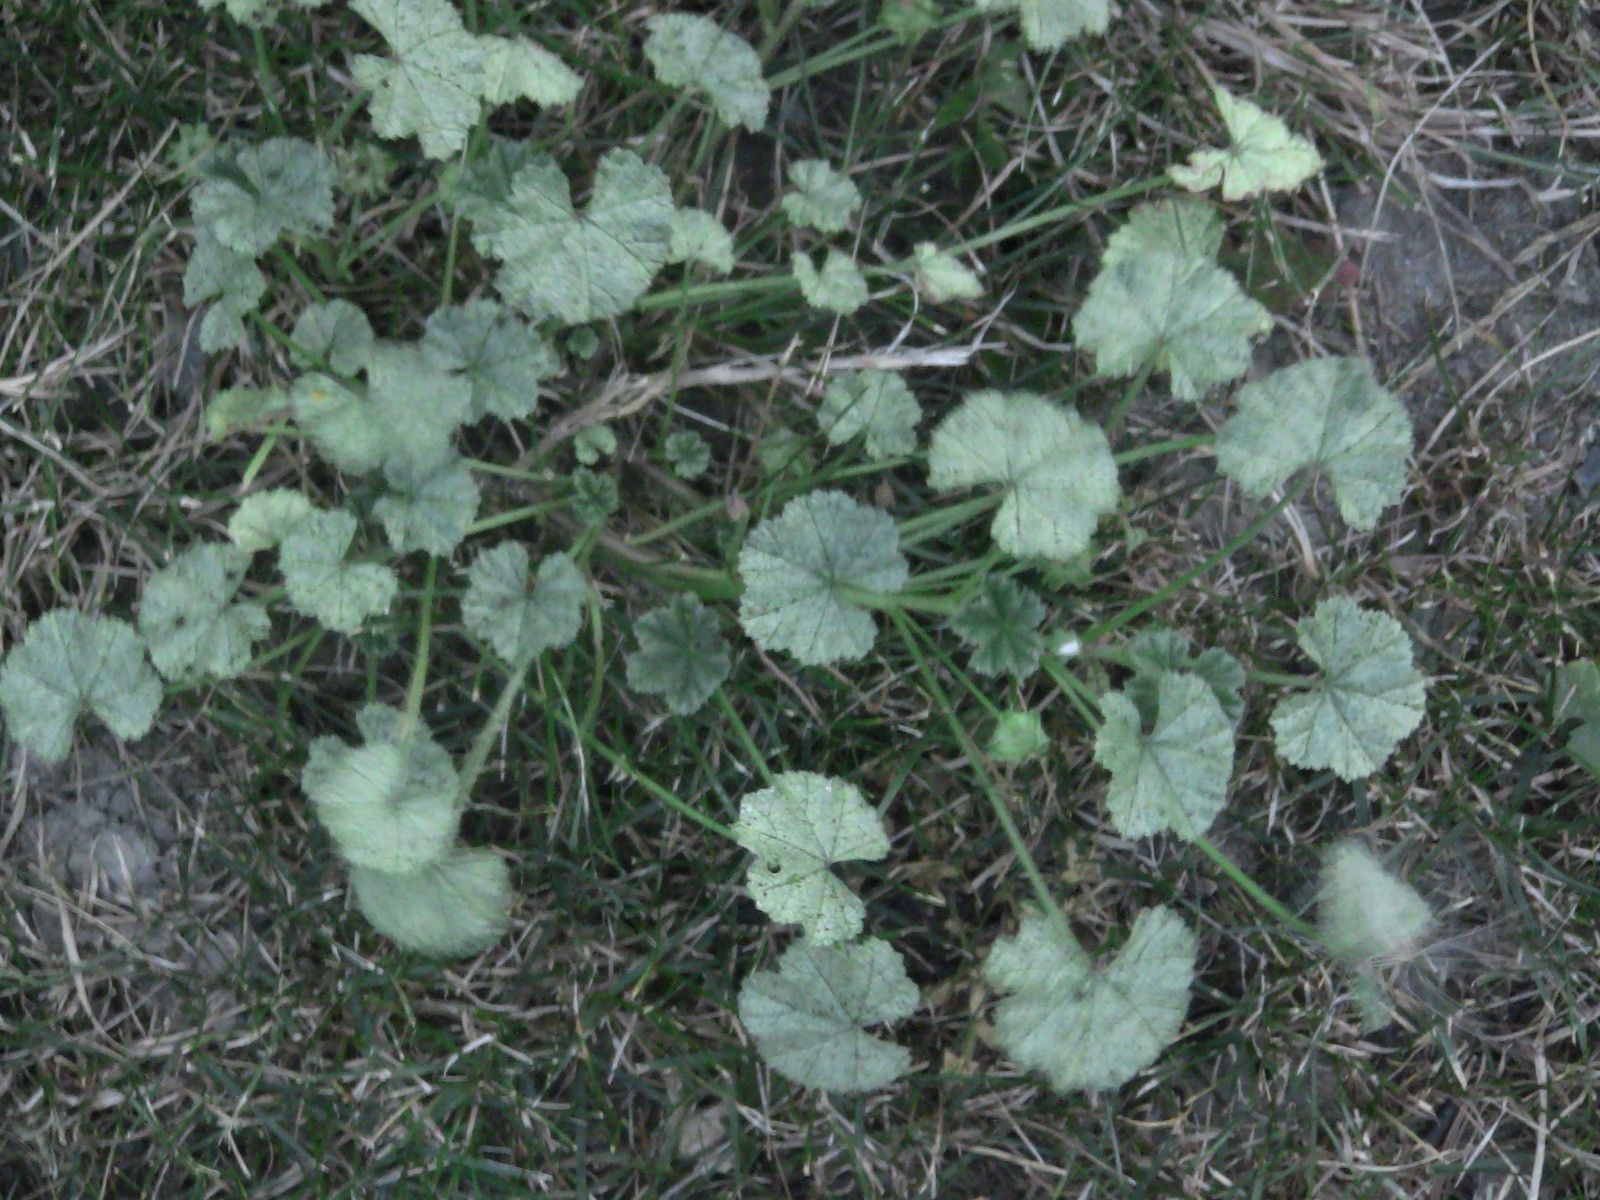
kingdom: Plantae
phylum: Tracheophyta
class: Magnoliopsida
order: Malvales
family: Malvaceae
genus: Malva
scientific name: Malva neglecta
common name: Common mallow
